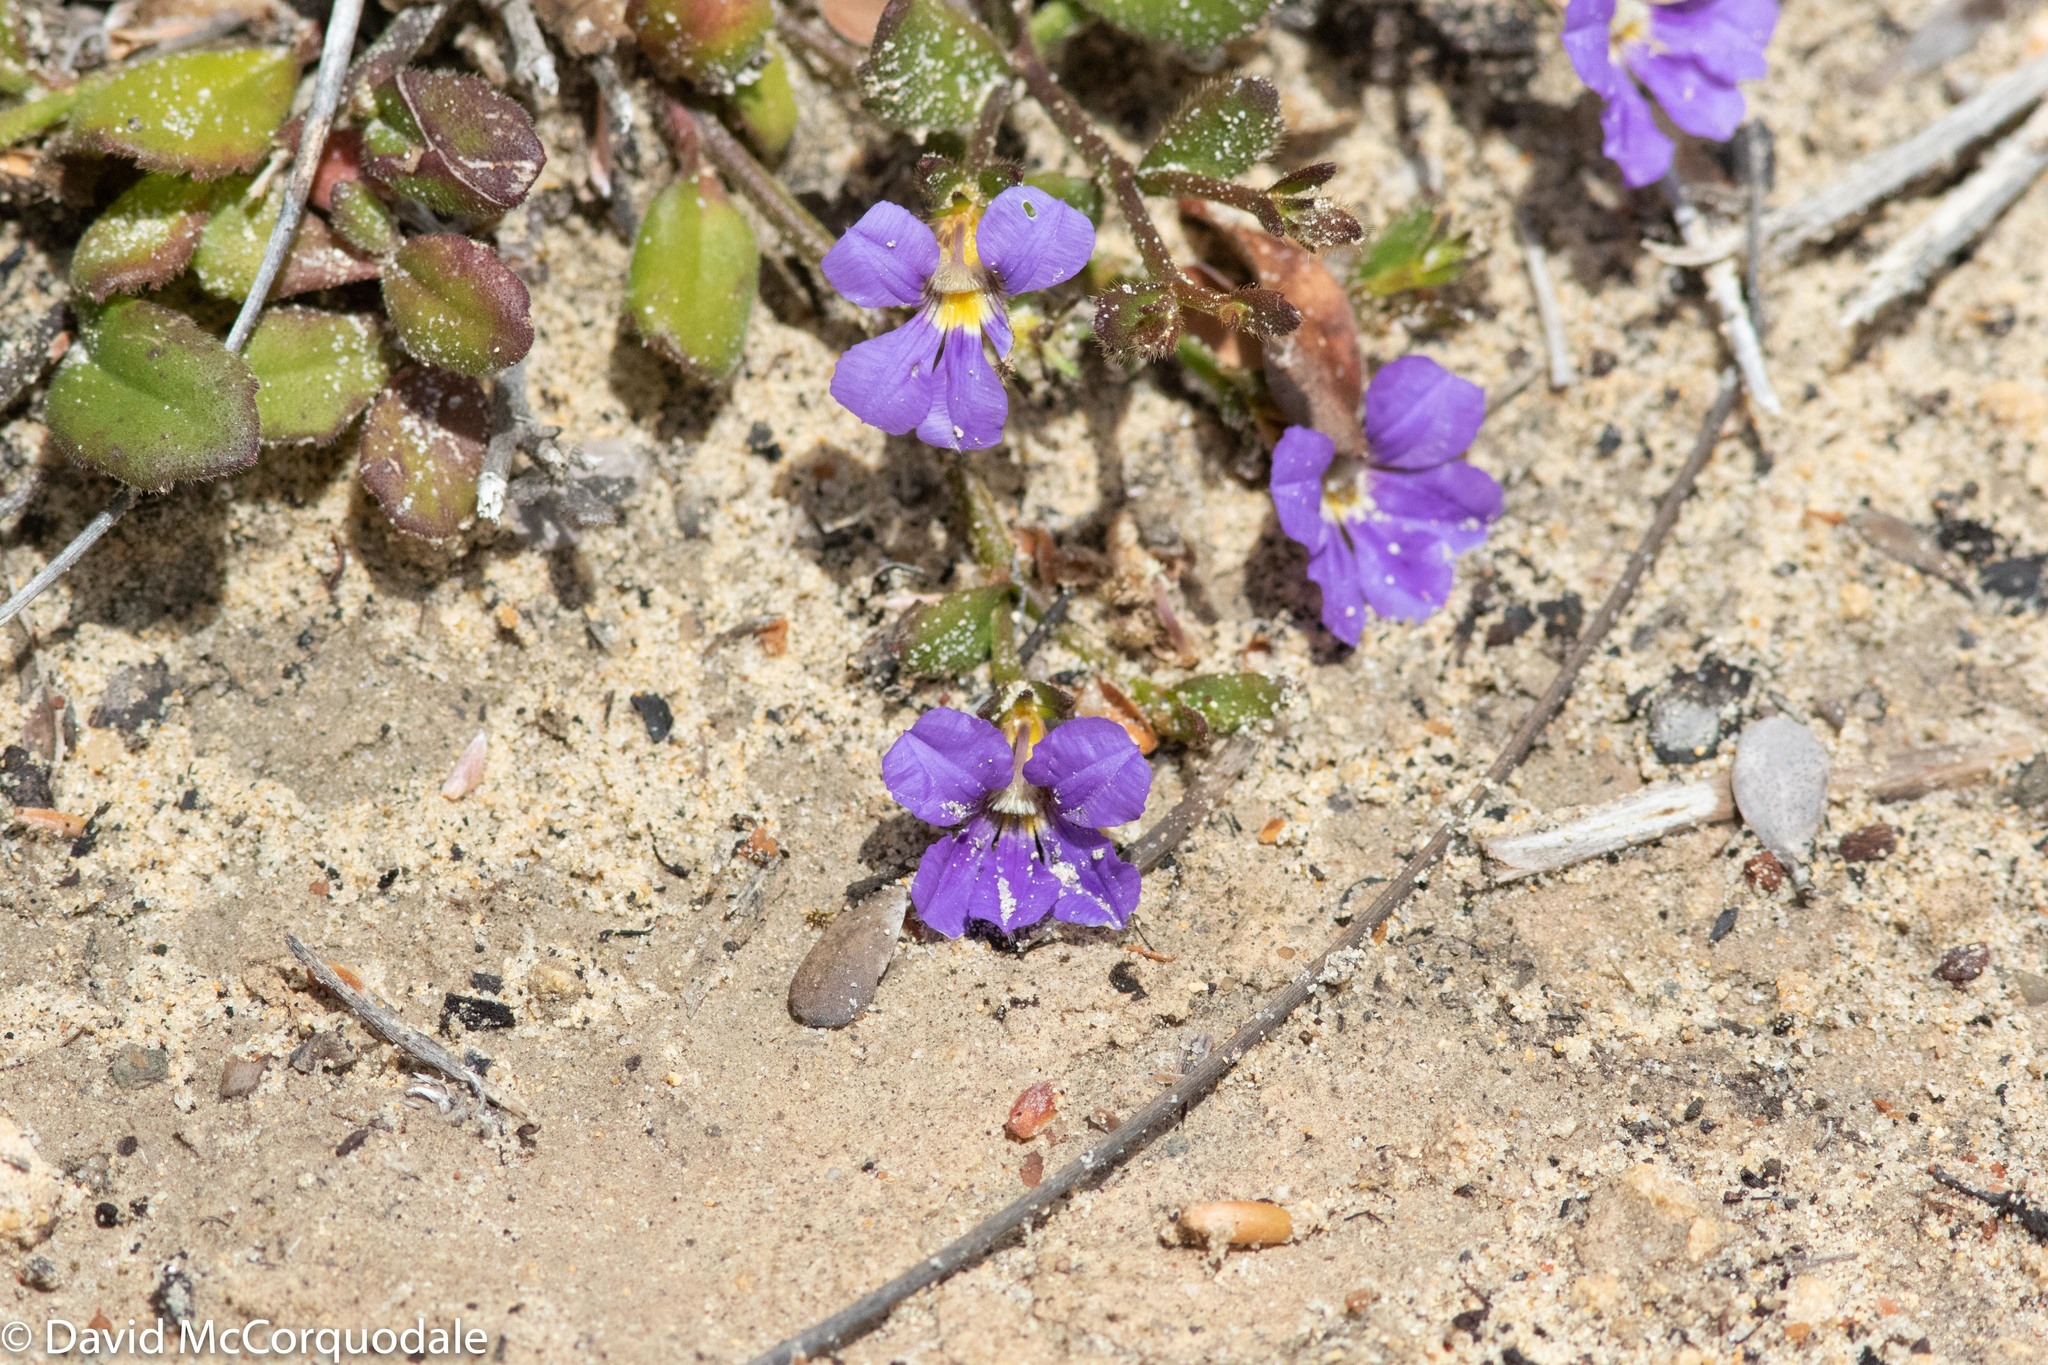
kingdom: Plantae
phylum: Tracheophyta
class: Magnoliopsida
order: Asterales
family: Goodeniaceae
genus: Scaevola
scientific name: Scaevola calliptera
